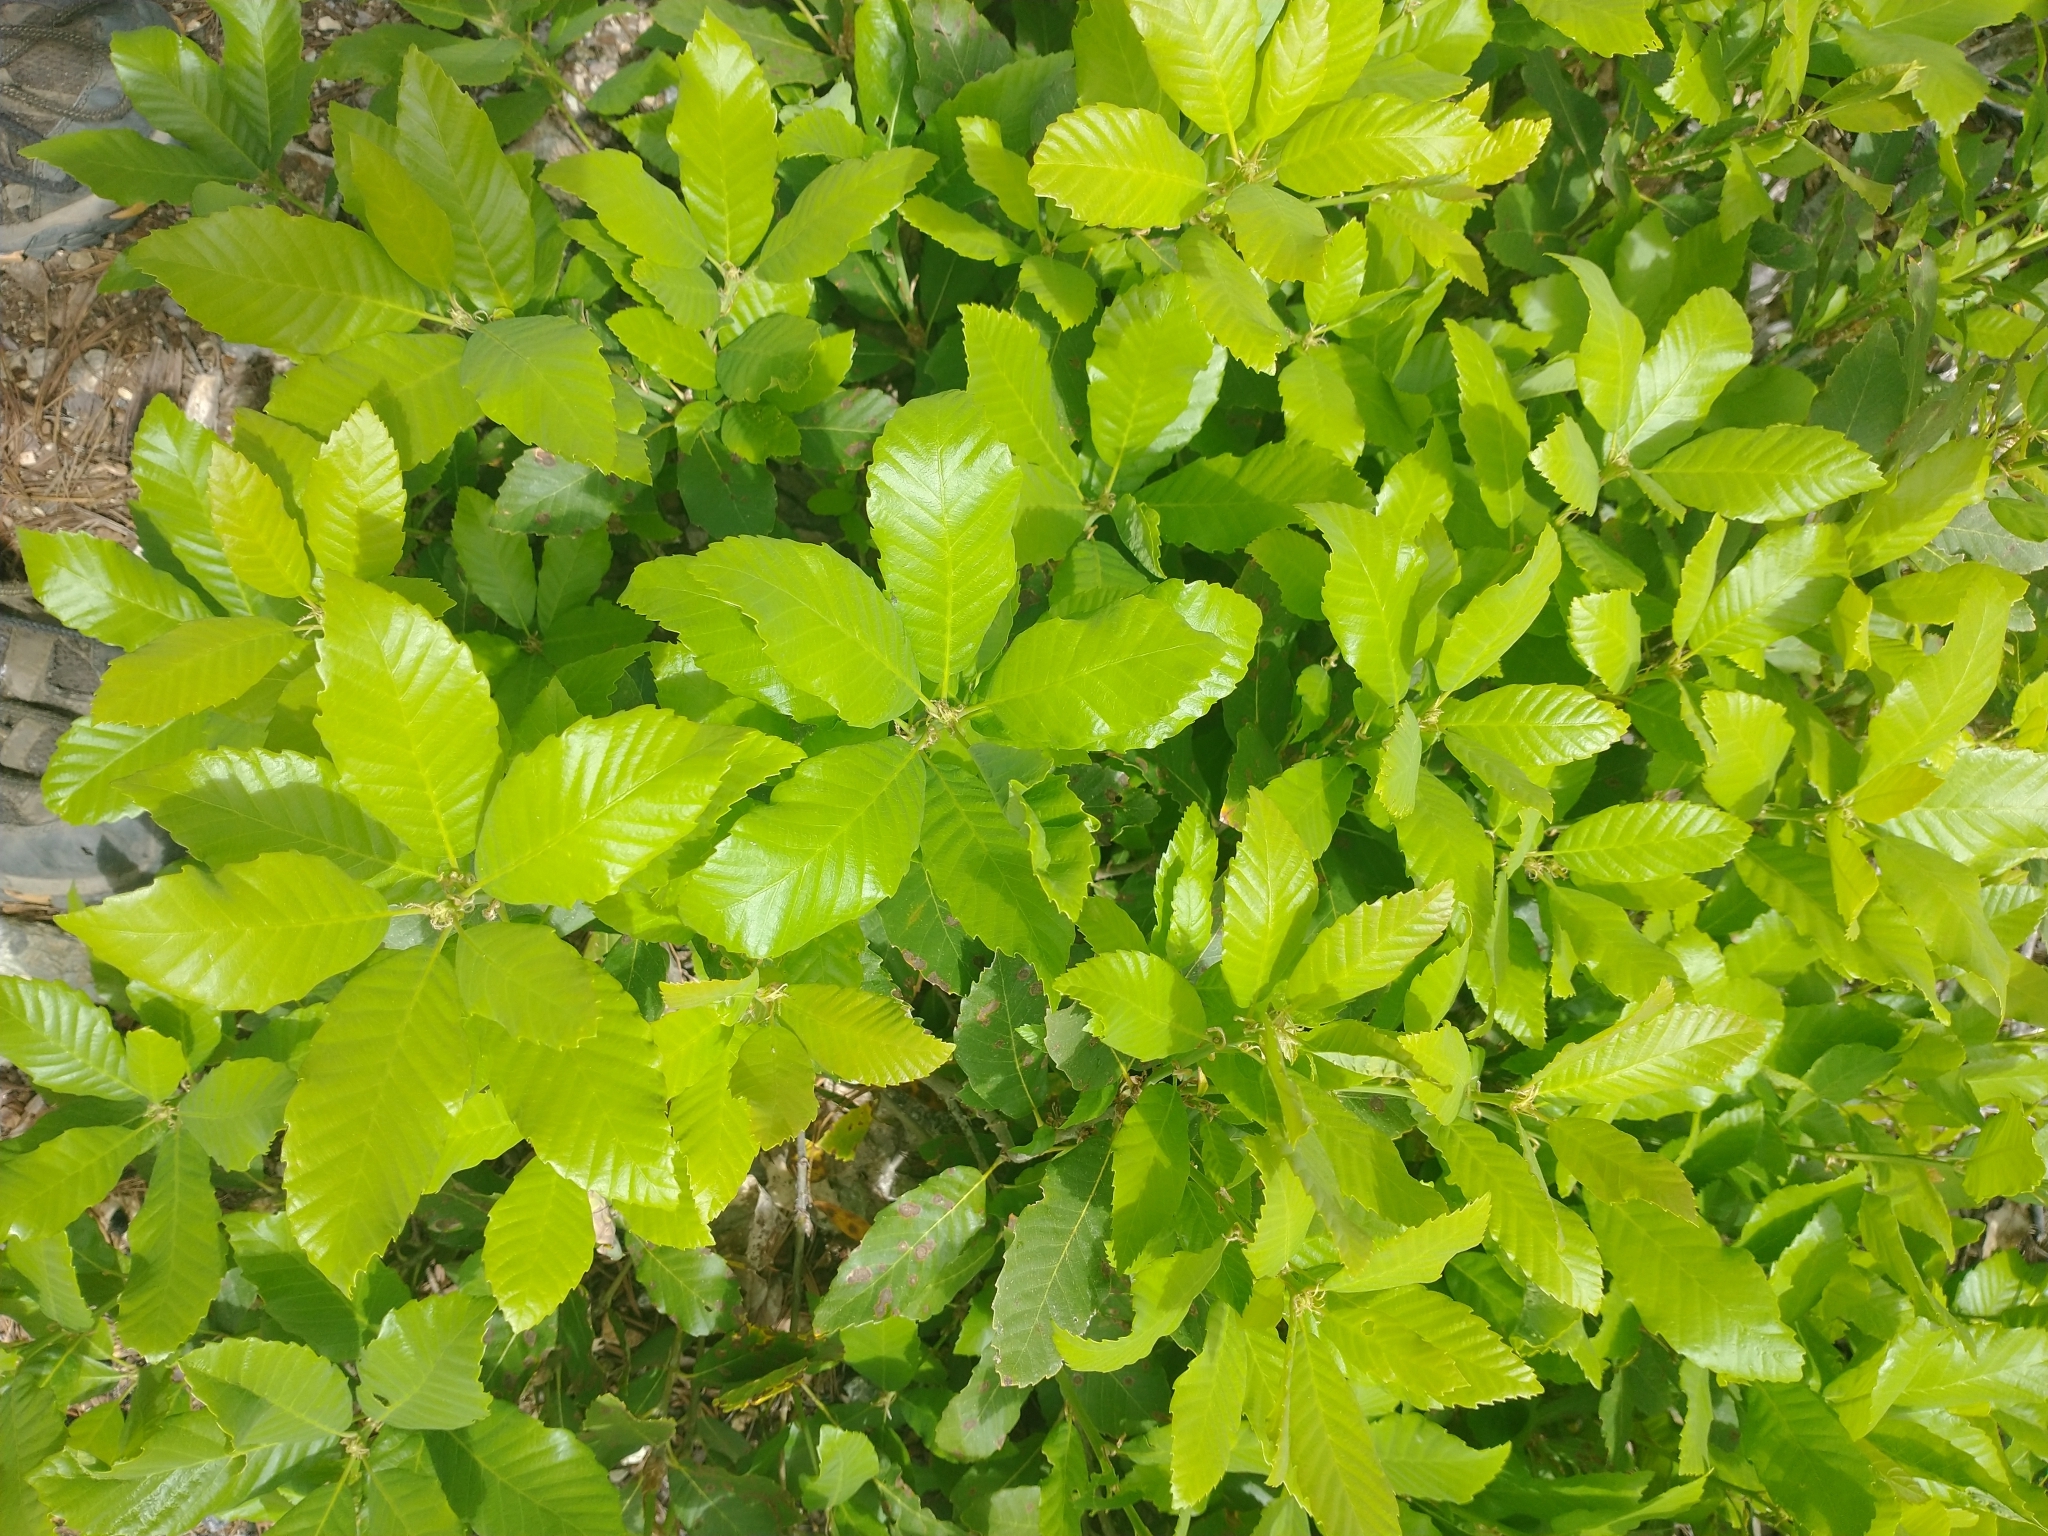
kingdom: Plantae
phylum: Tracheophyta
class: Magnoliopsida
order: Fagales
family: Fagaceae
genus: Quercus
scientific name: Quercus sadleriana
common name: Deer oak
